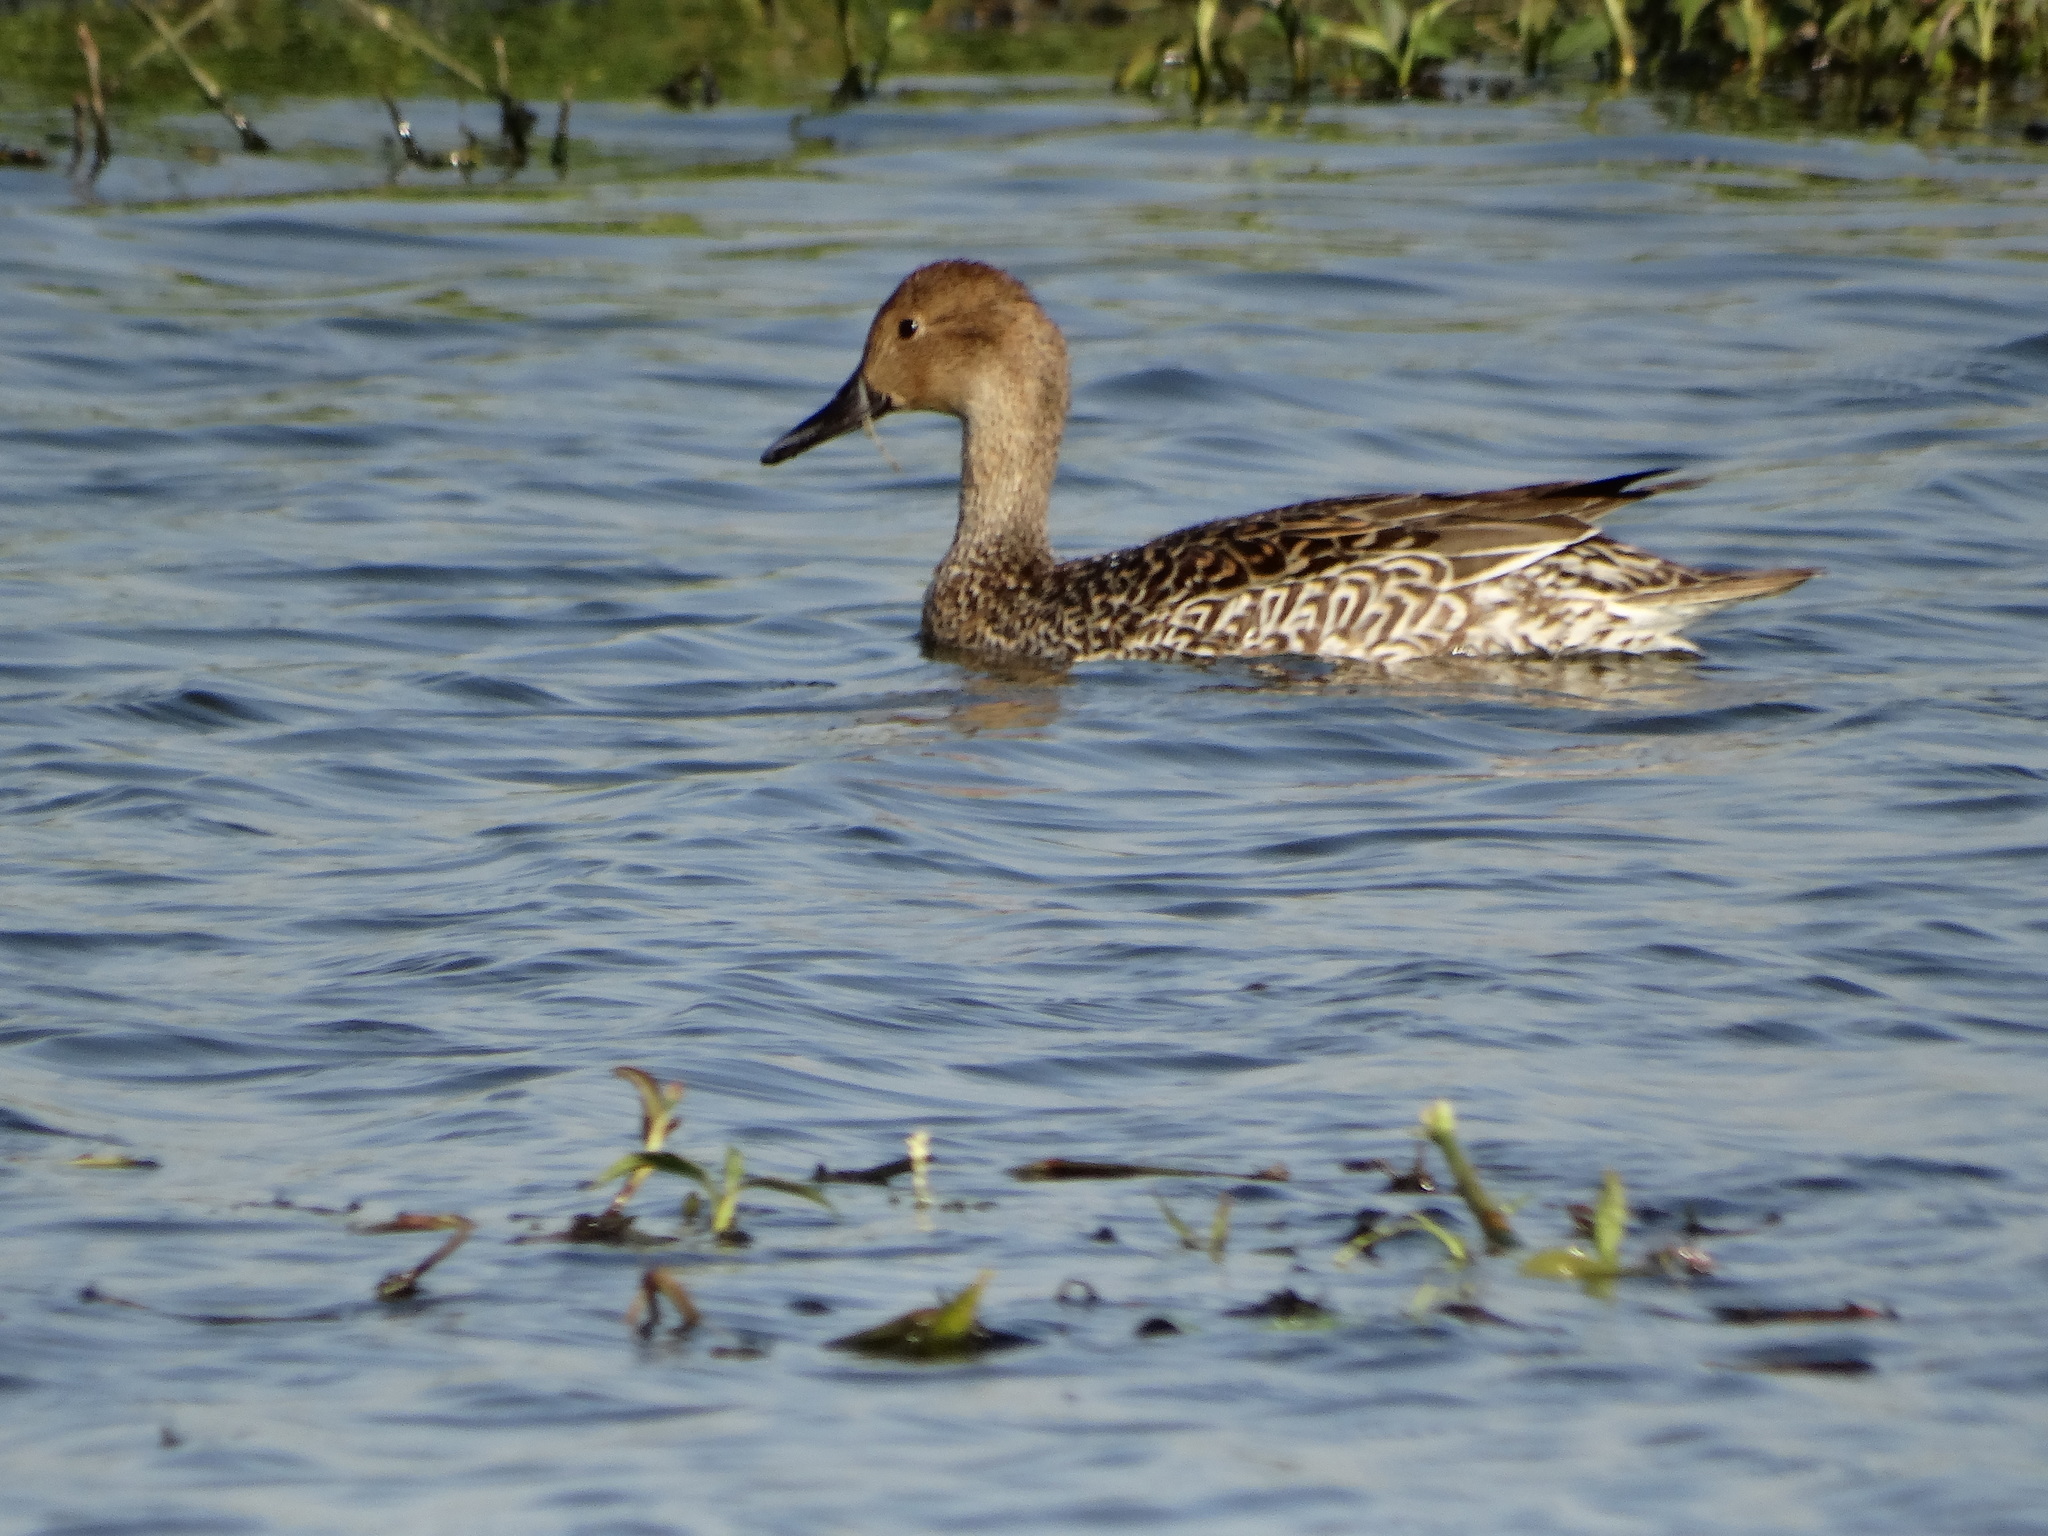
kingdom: Animalia
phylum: Chordata
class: Aves
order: Anseriformes
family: Anatidae
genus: Anas
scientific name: Anas acuta
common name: Northern pintail
